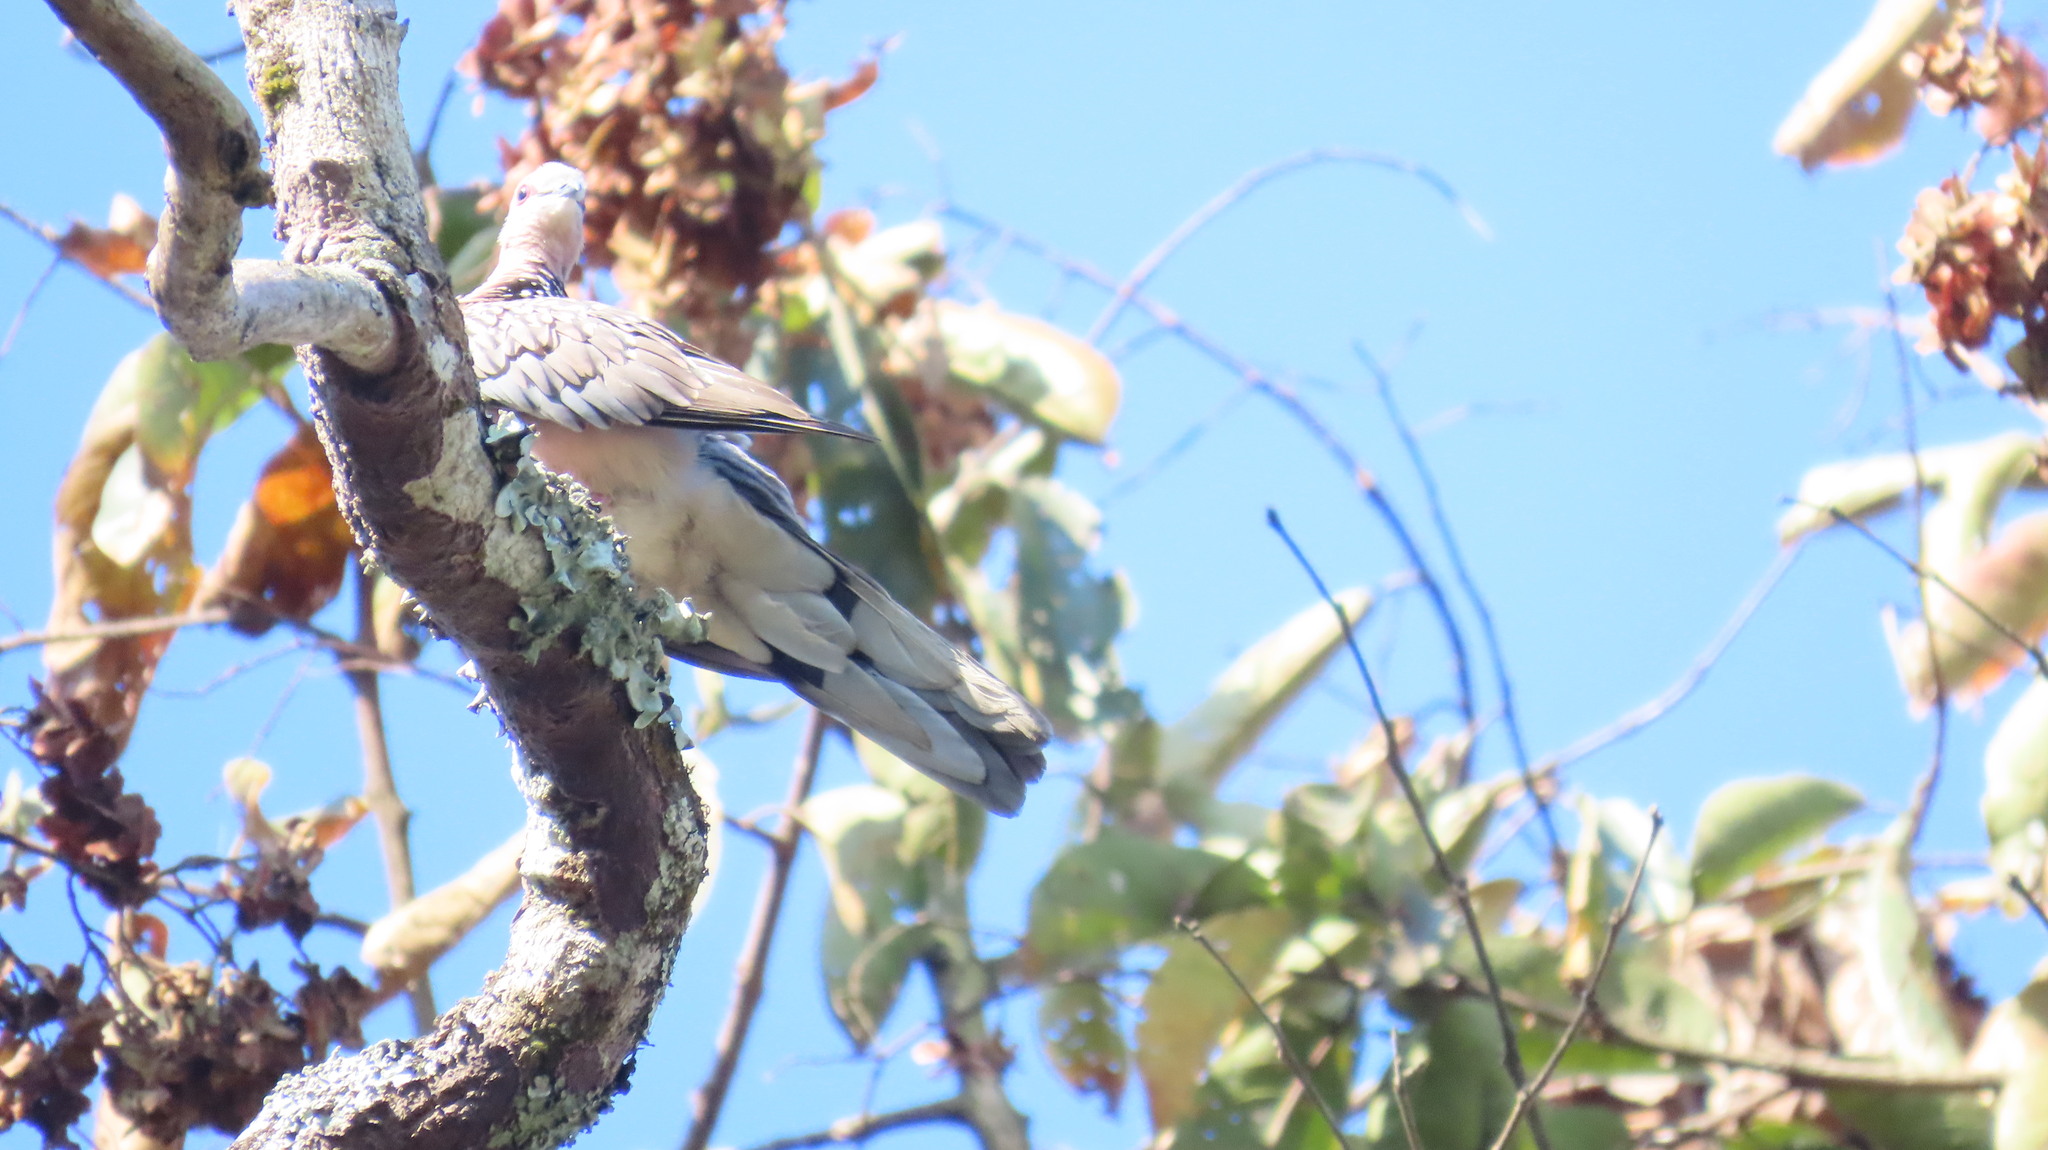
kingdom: Animalia
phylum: Chordata
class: Aves
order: Columbiformes
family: Columbidae
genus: Spilopelia
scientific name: Spilopelia chinensis
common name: Spotted dove
